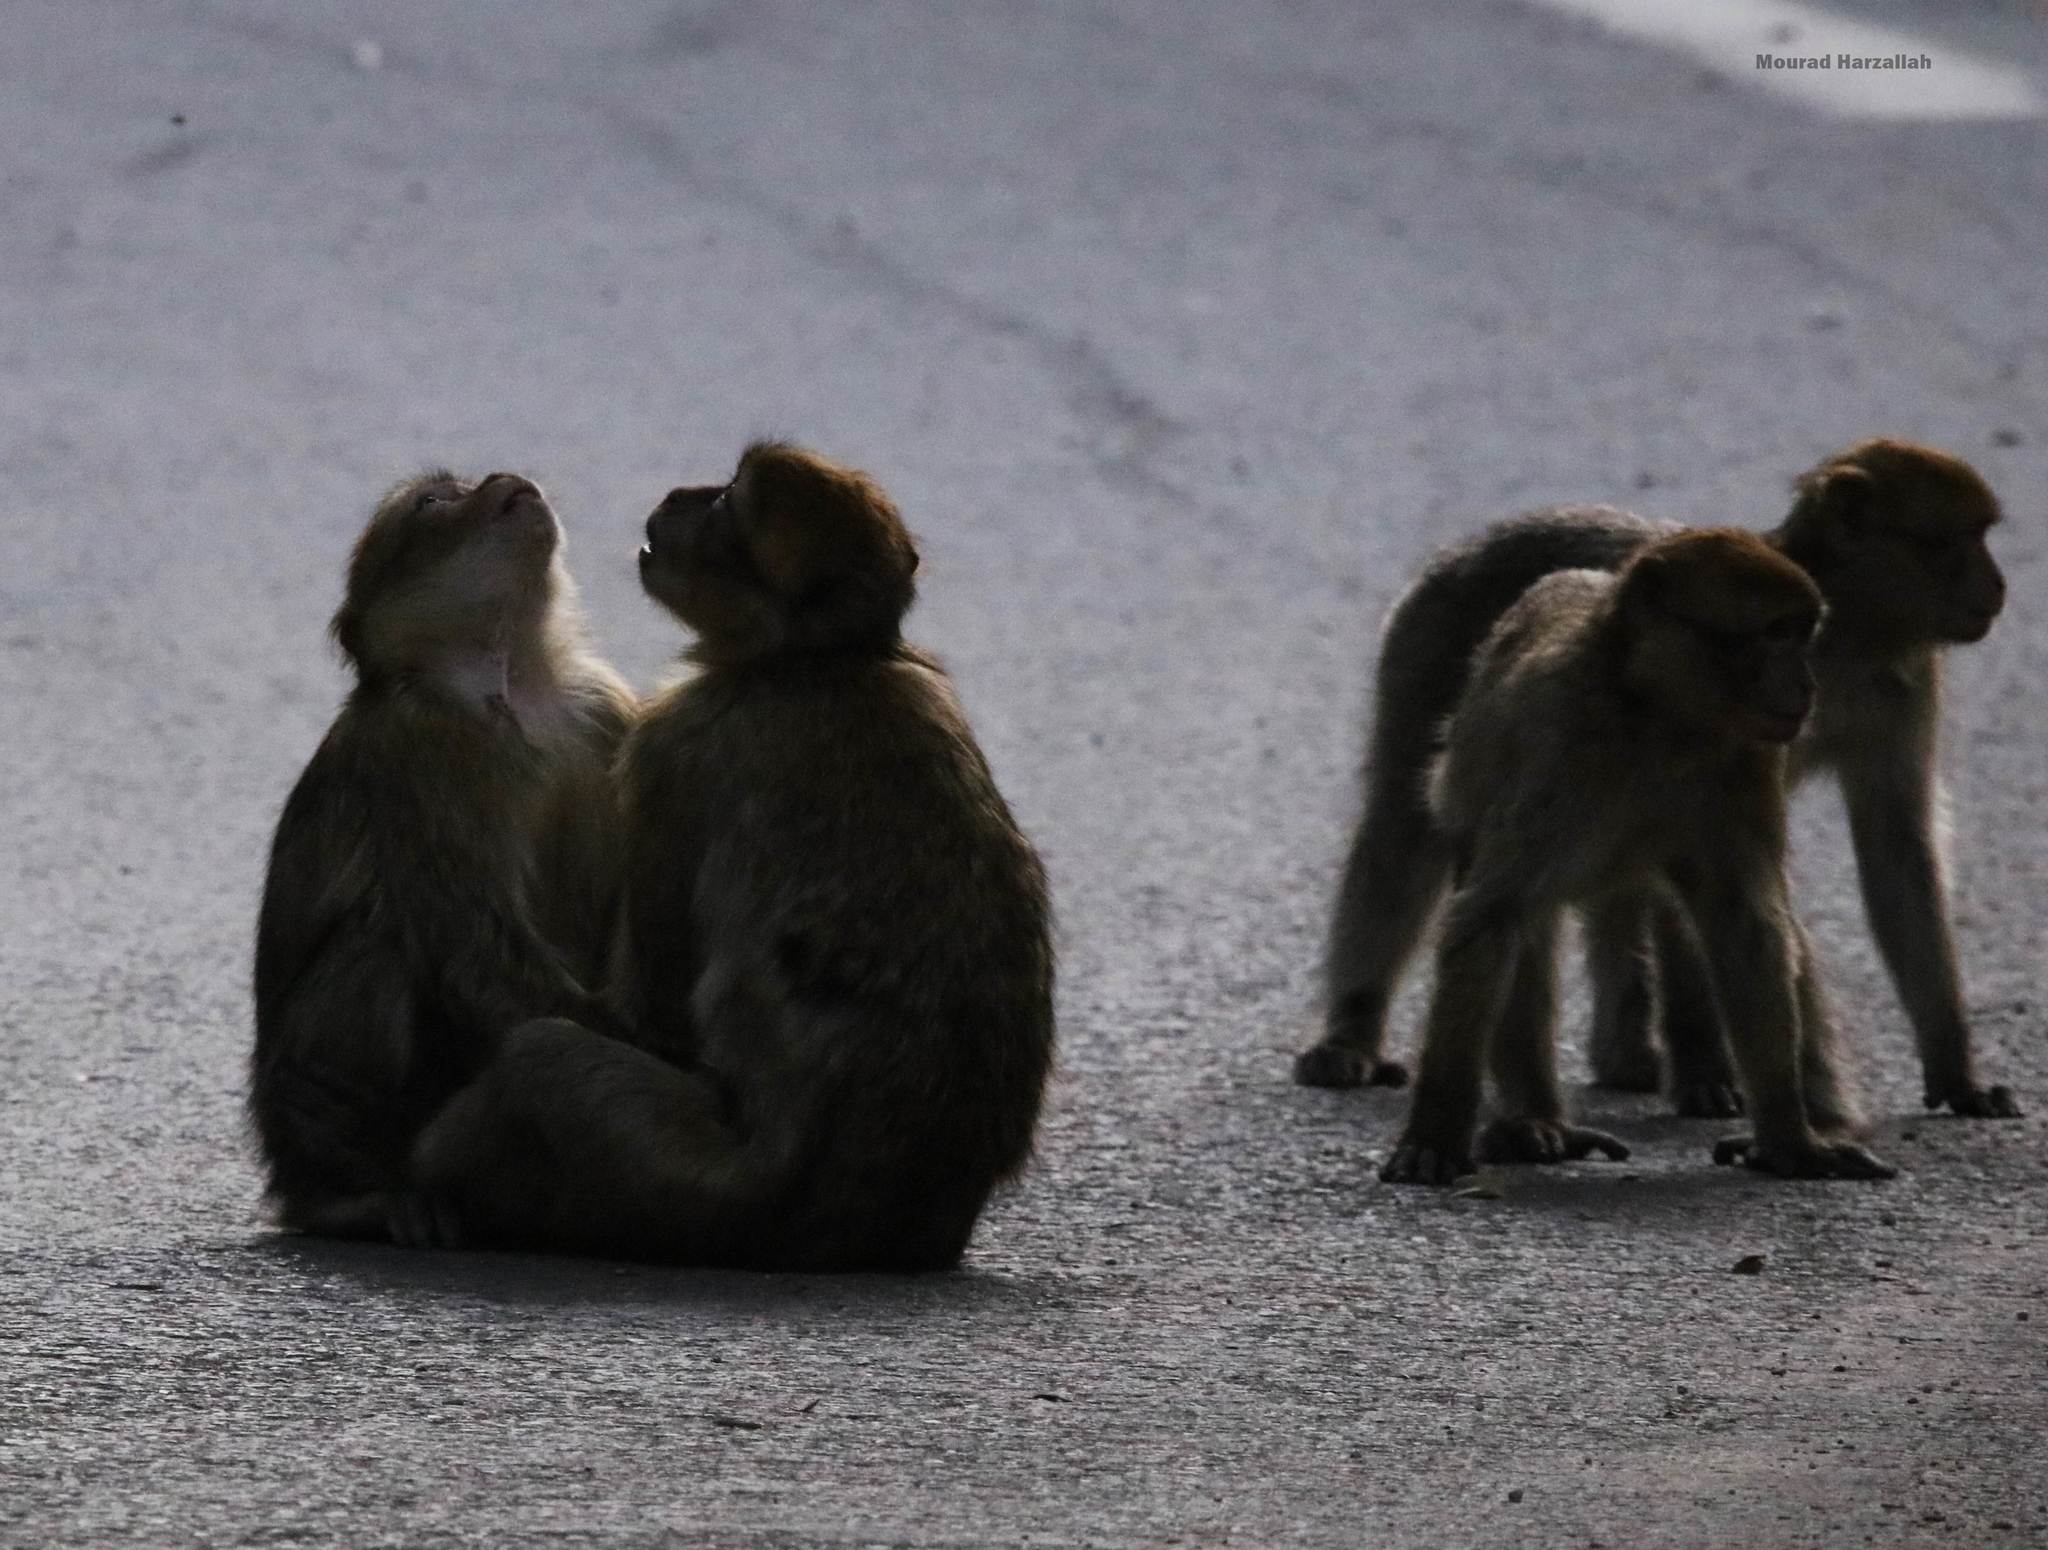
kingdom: Animalia
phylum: Chordata
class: Mammalia
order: Primates
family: Cercopithecidae
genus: Macaca
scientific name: Macaca sylvanus
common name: Barbary macaque
